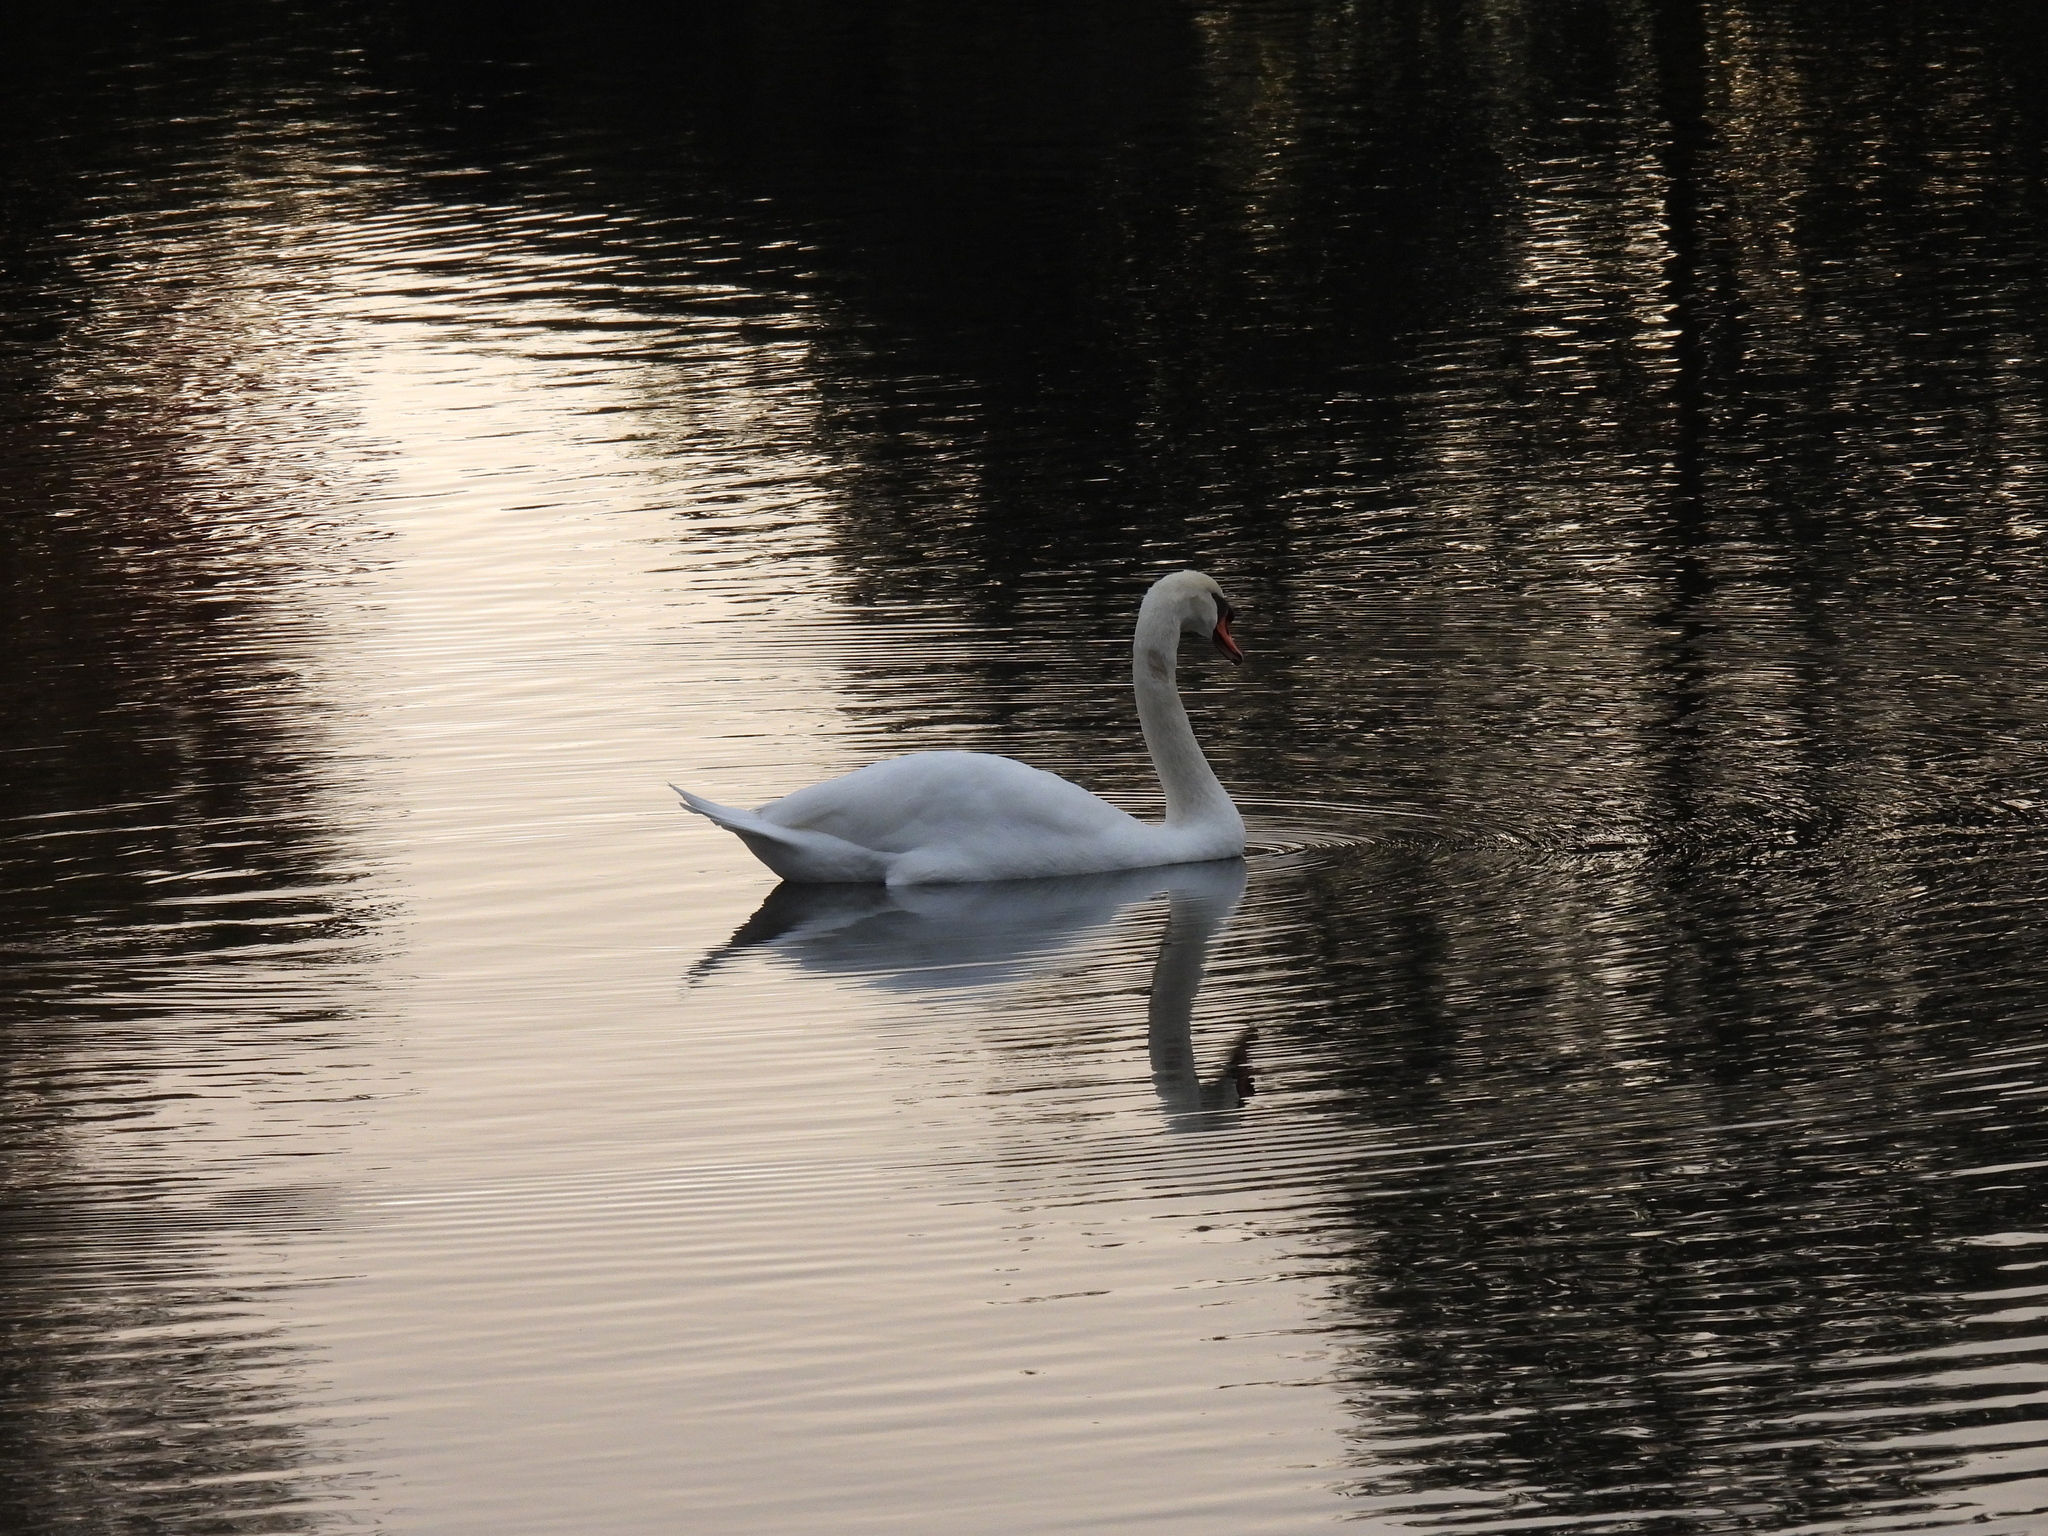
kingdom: Animalia
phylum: Chordata
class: Aves
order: Anseriformes
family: Anatidae
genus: Cygnus
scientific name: Cygnus olor
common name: Mute swan
